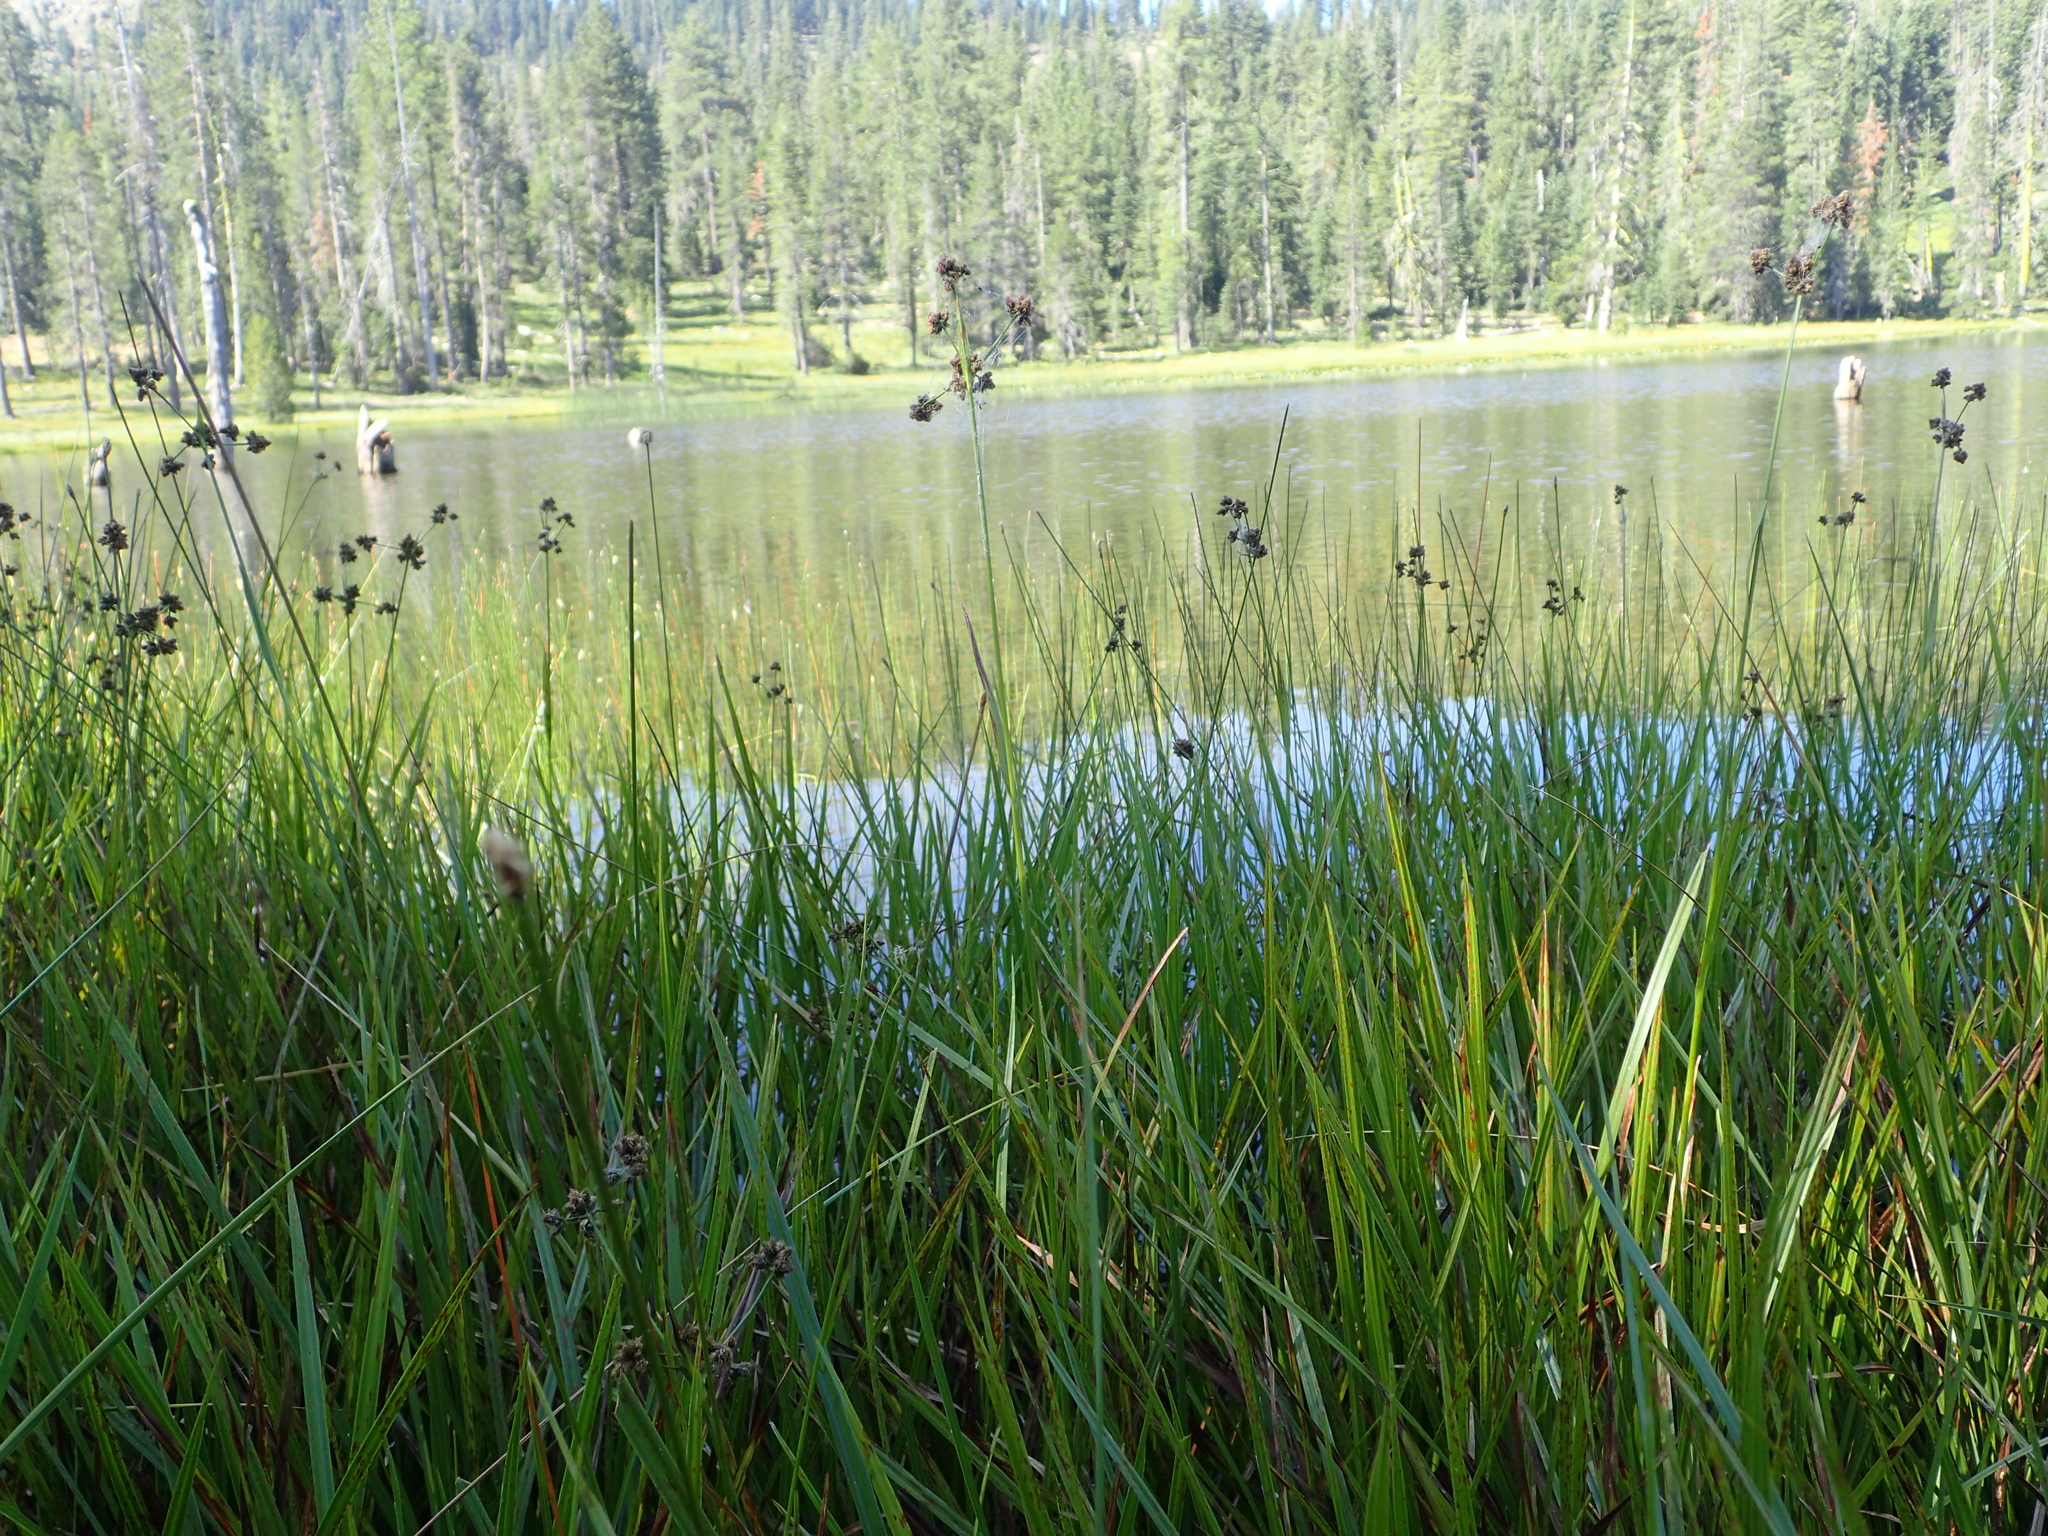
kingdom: Plantae
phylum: Tracheophyta
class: Liliopsida
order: Poales
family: Cyperaceae
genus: Scirpus
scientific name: Scirpus congdonii
